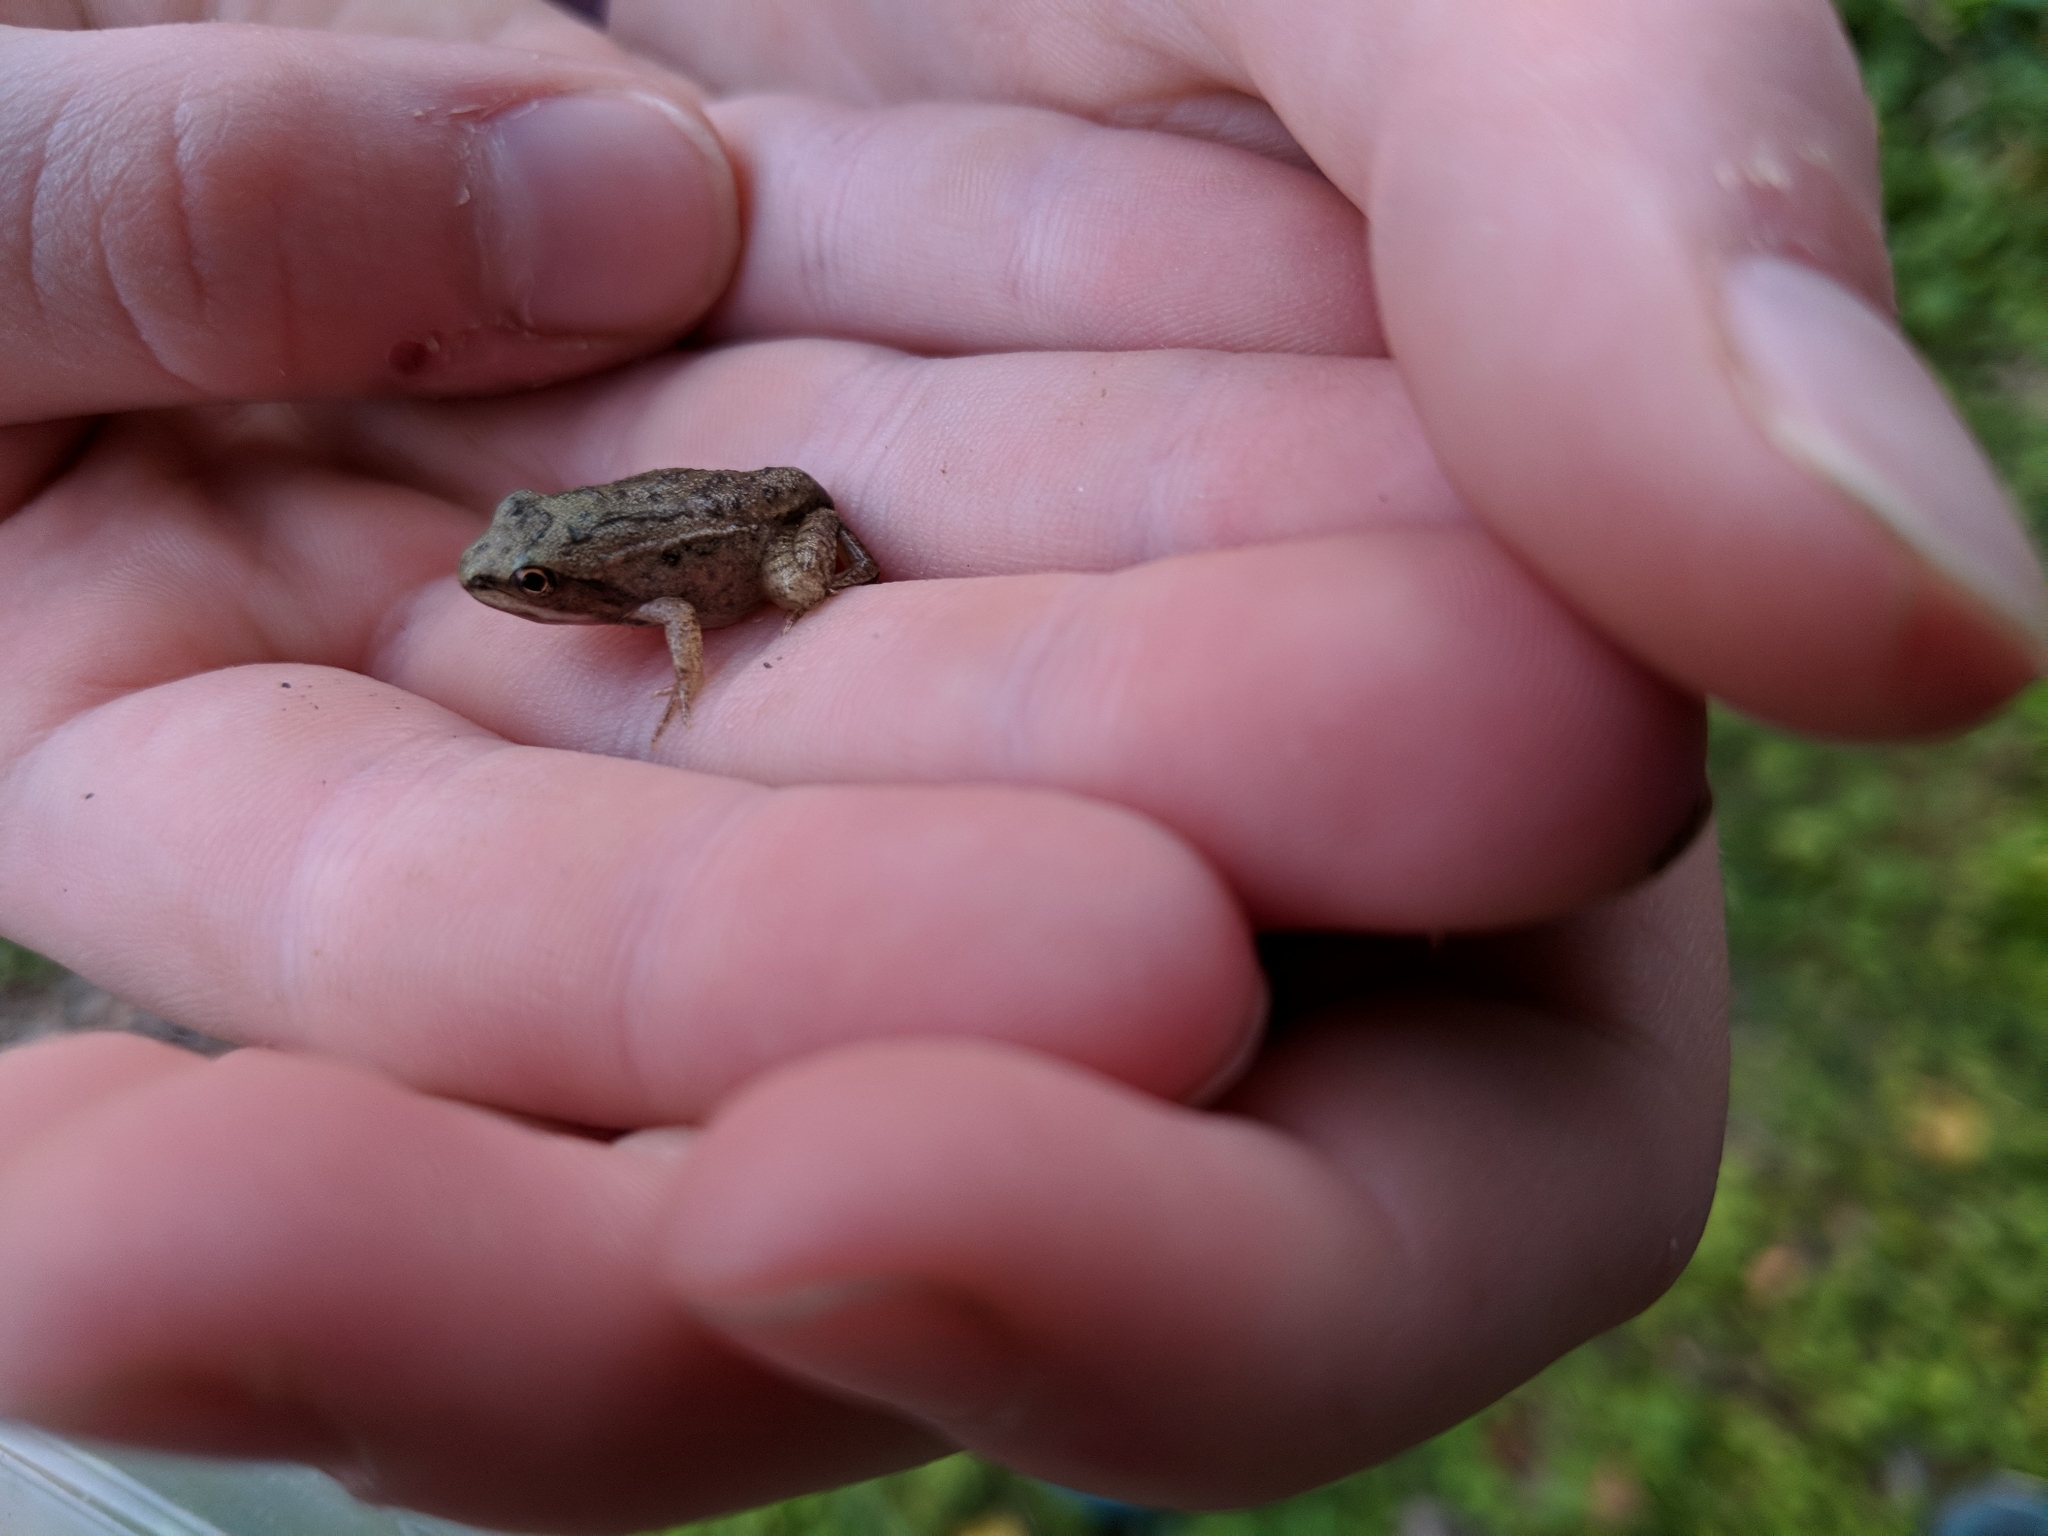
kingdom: Animalia
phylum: Chordata
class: Amphibia
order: Anura
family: Ranidae
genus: Lithobates
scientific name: Lithobates sylvaticus
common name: Wood frog
